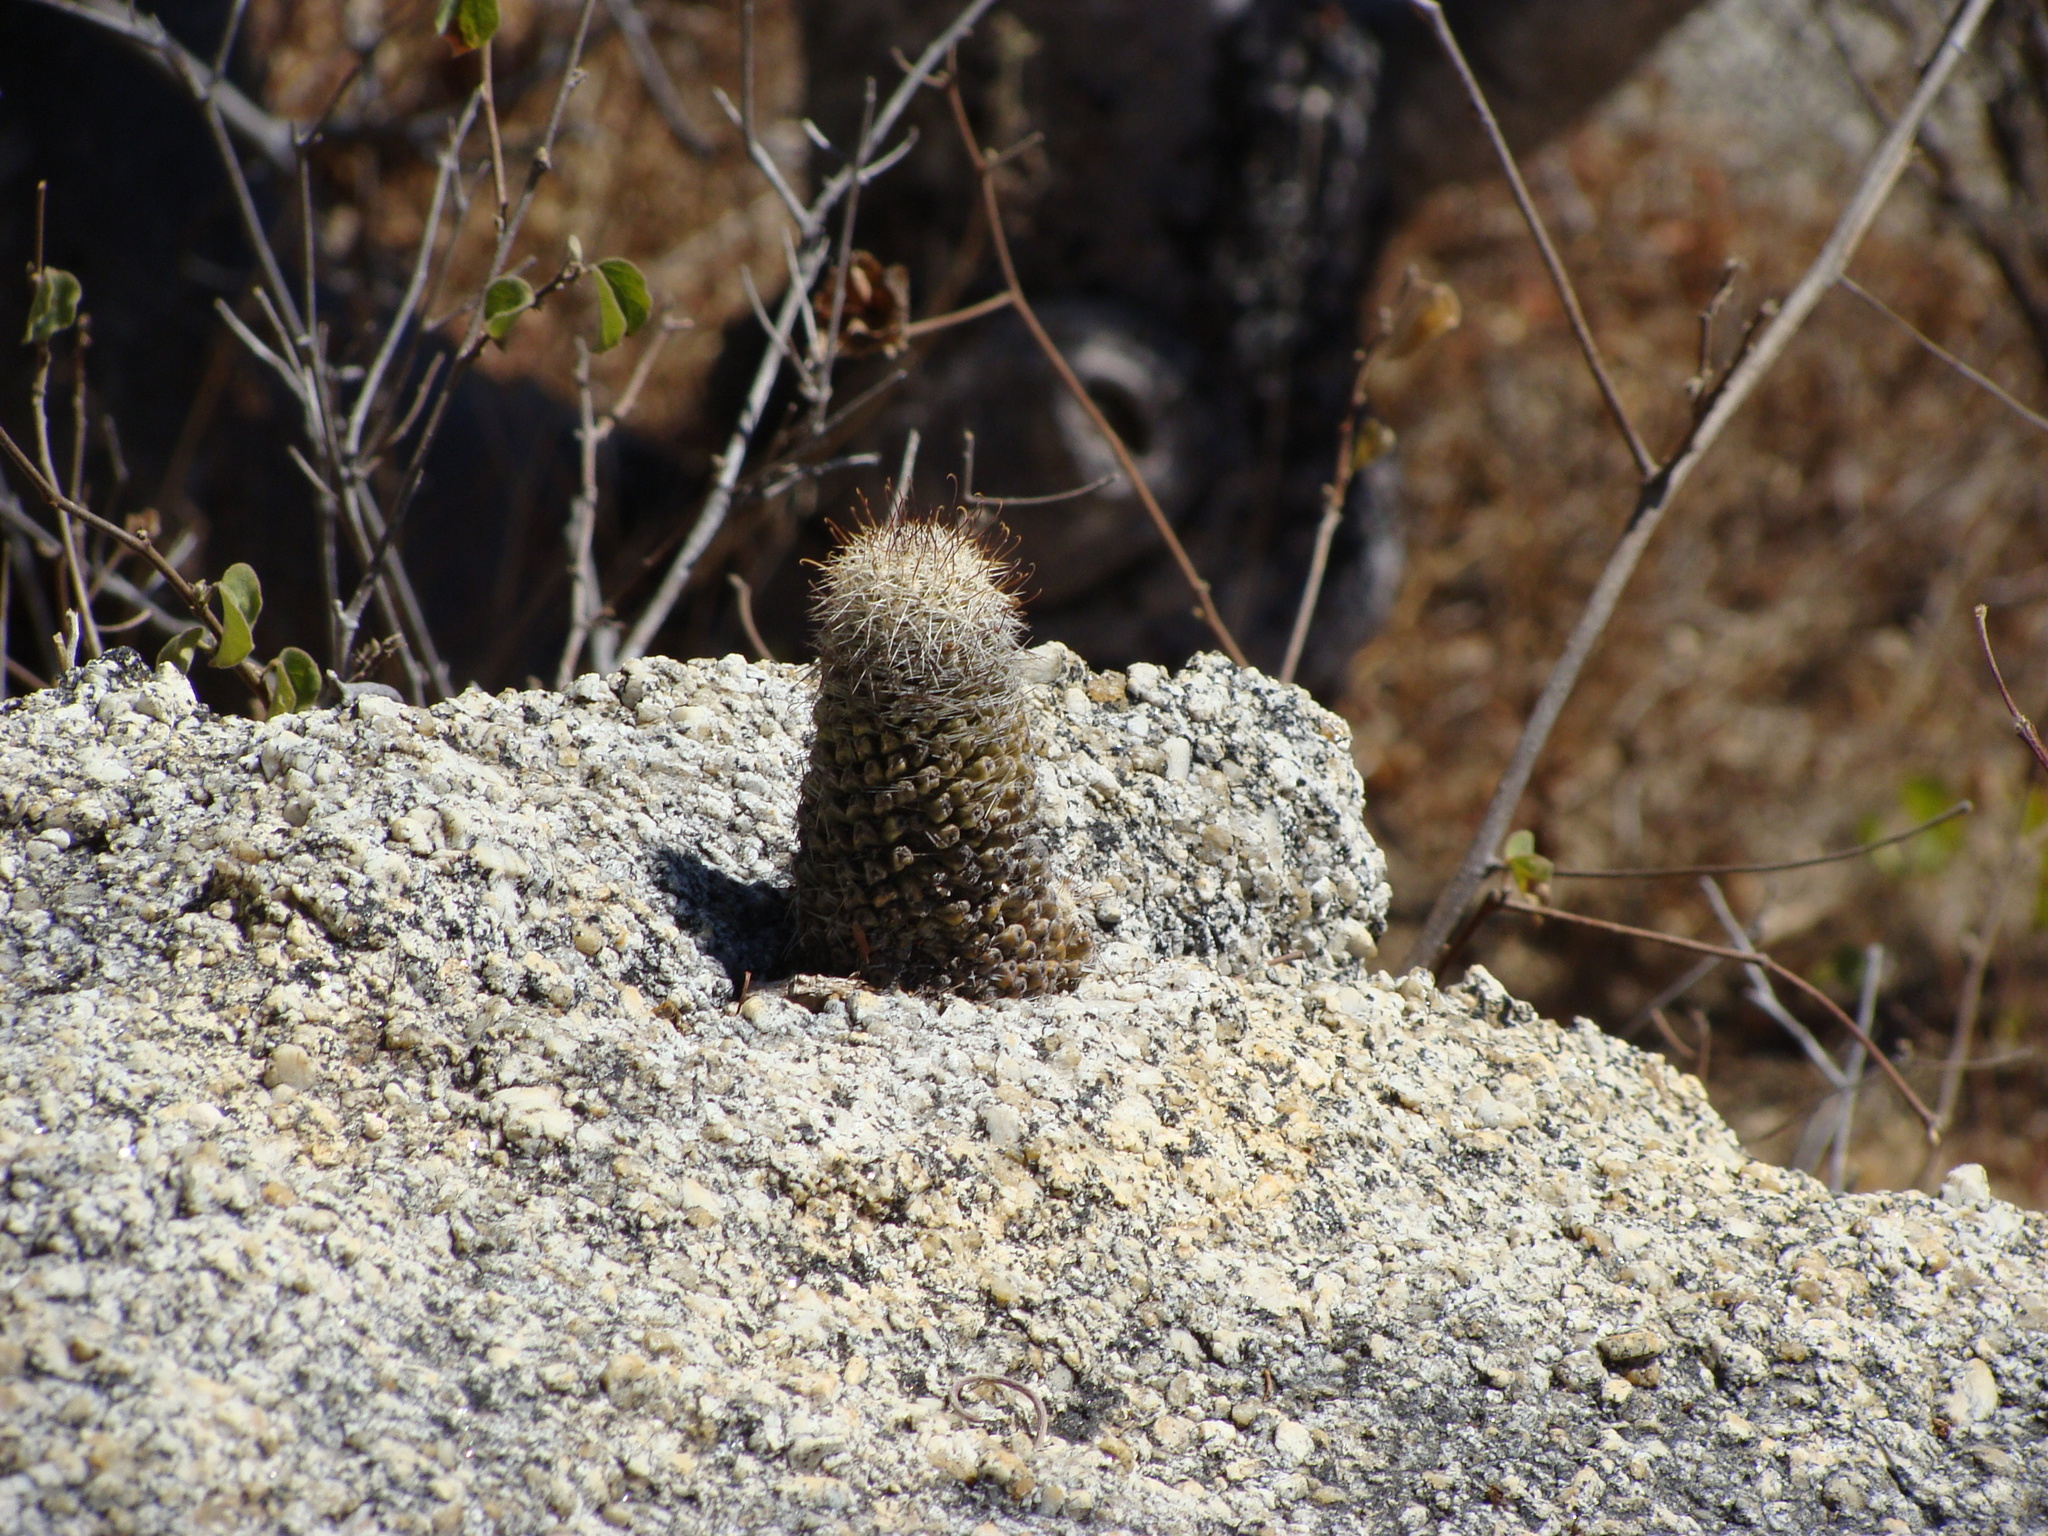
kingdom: Plantae
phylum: Tracheophyta
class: Magnoliopsida
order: Caryophyllales
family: Cactaceae
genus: Cochemiea
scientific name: Cochemiea capensis
